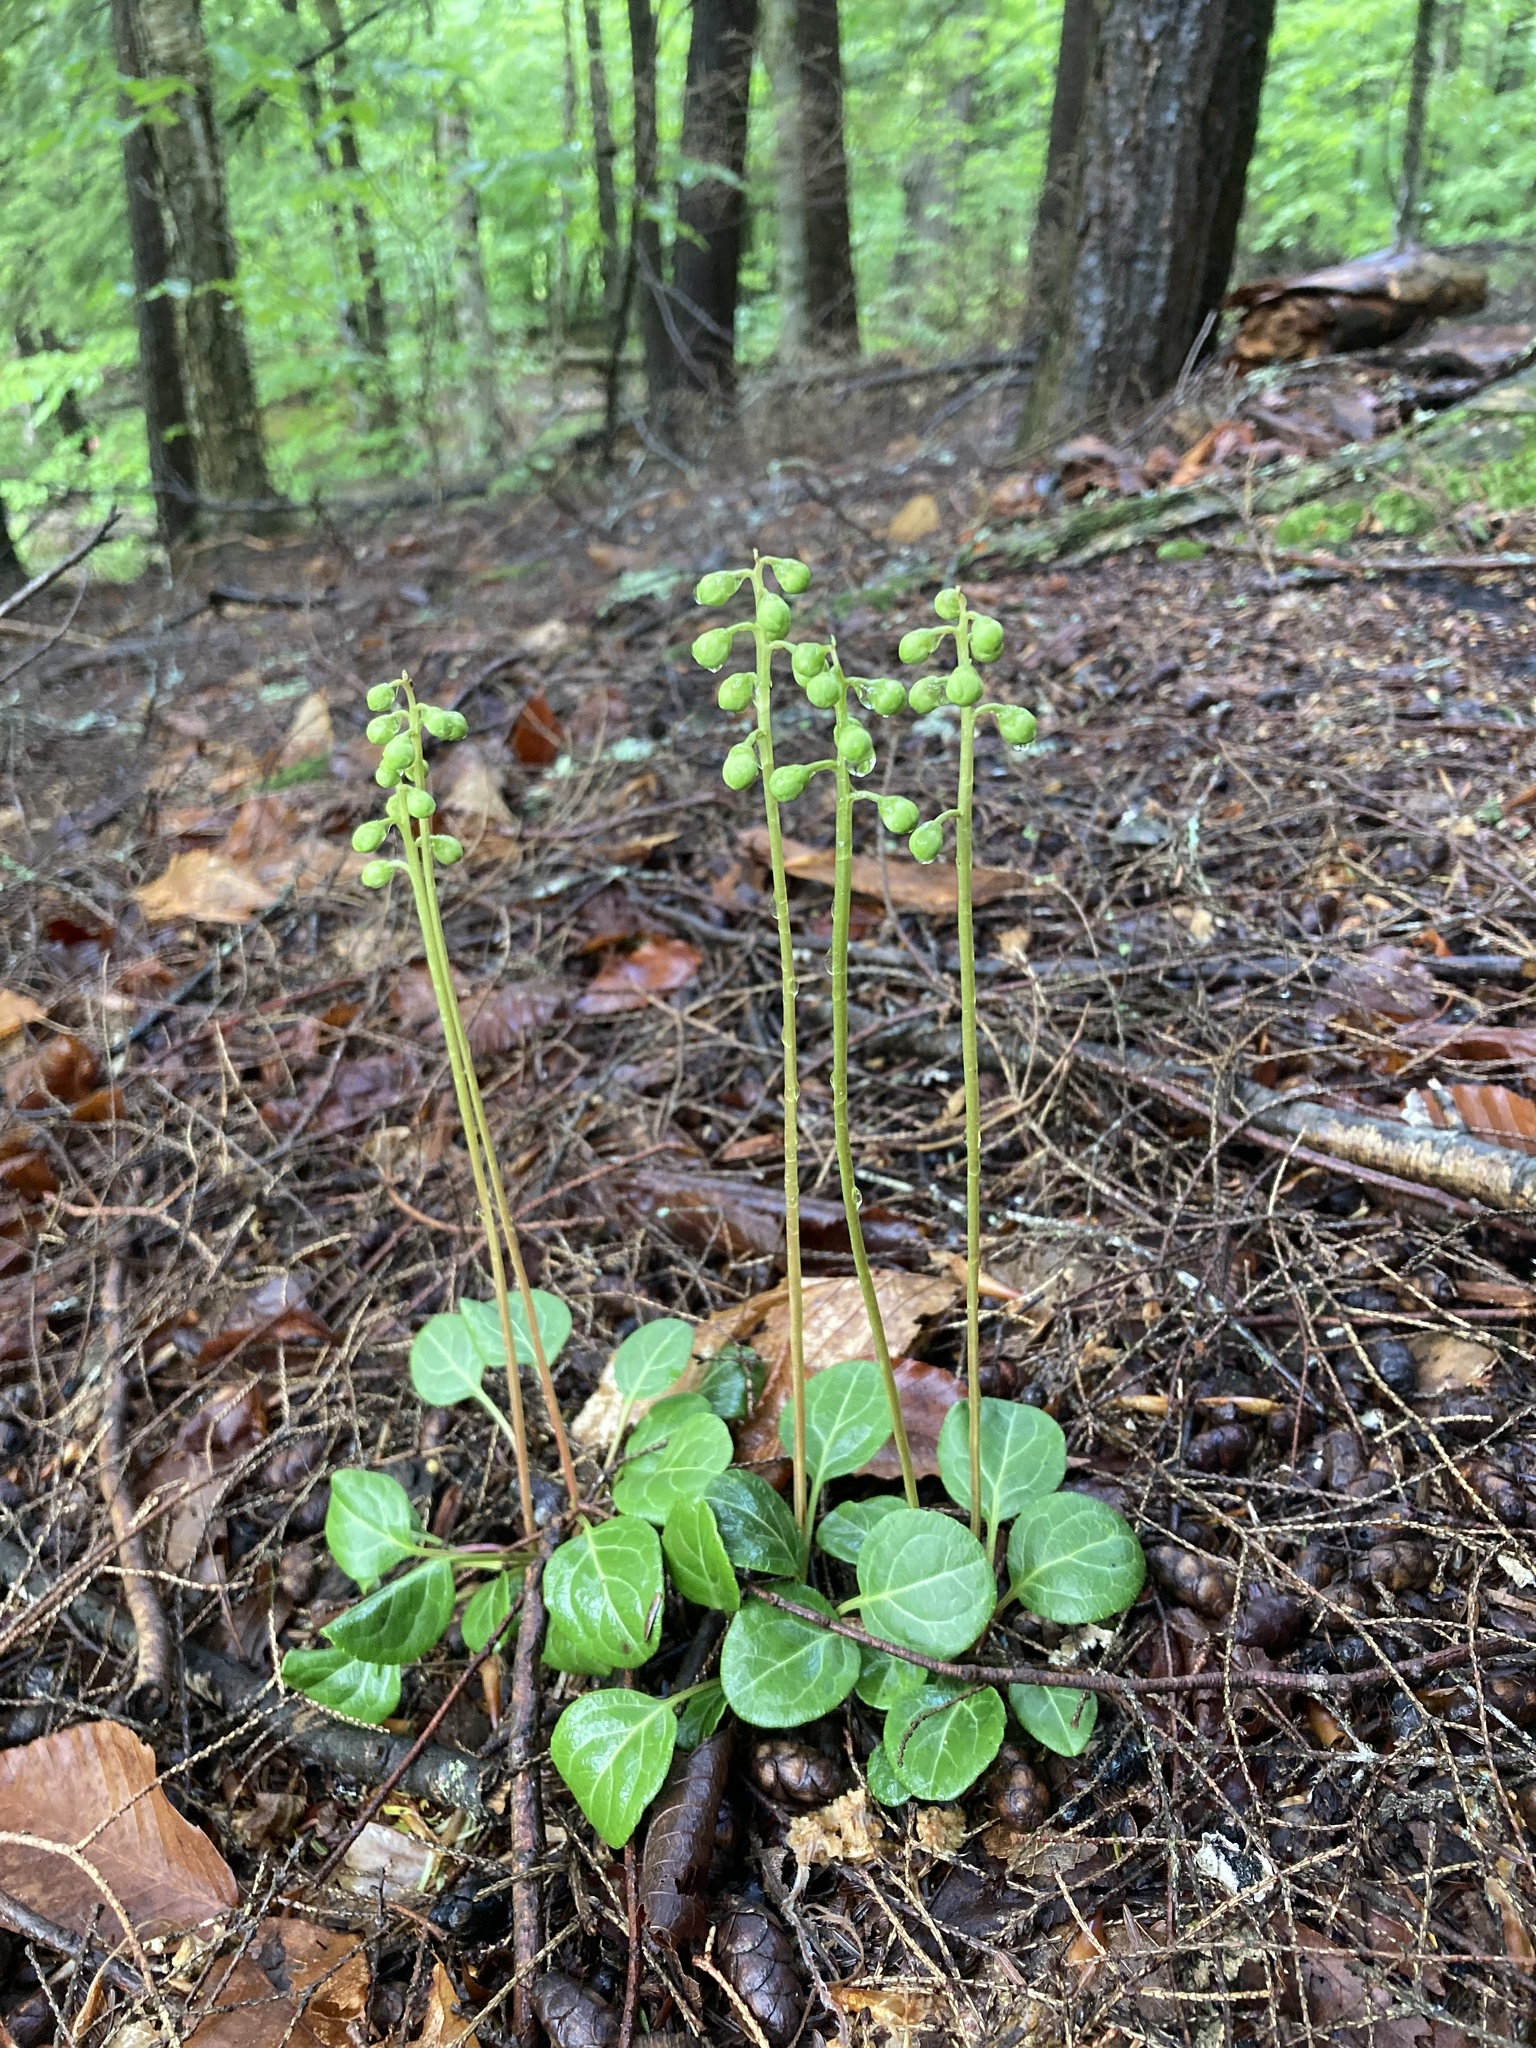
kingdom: Plantae
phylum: Tracheophyta
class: Magnoliopsida
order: Ericales
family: Ericaceae
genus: Pyrola
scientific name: Pyrola chlorantha
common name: Green wintergreen
